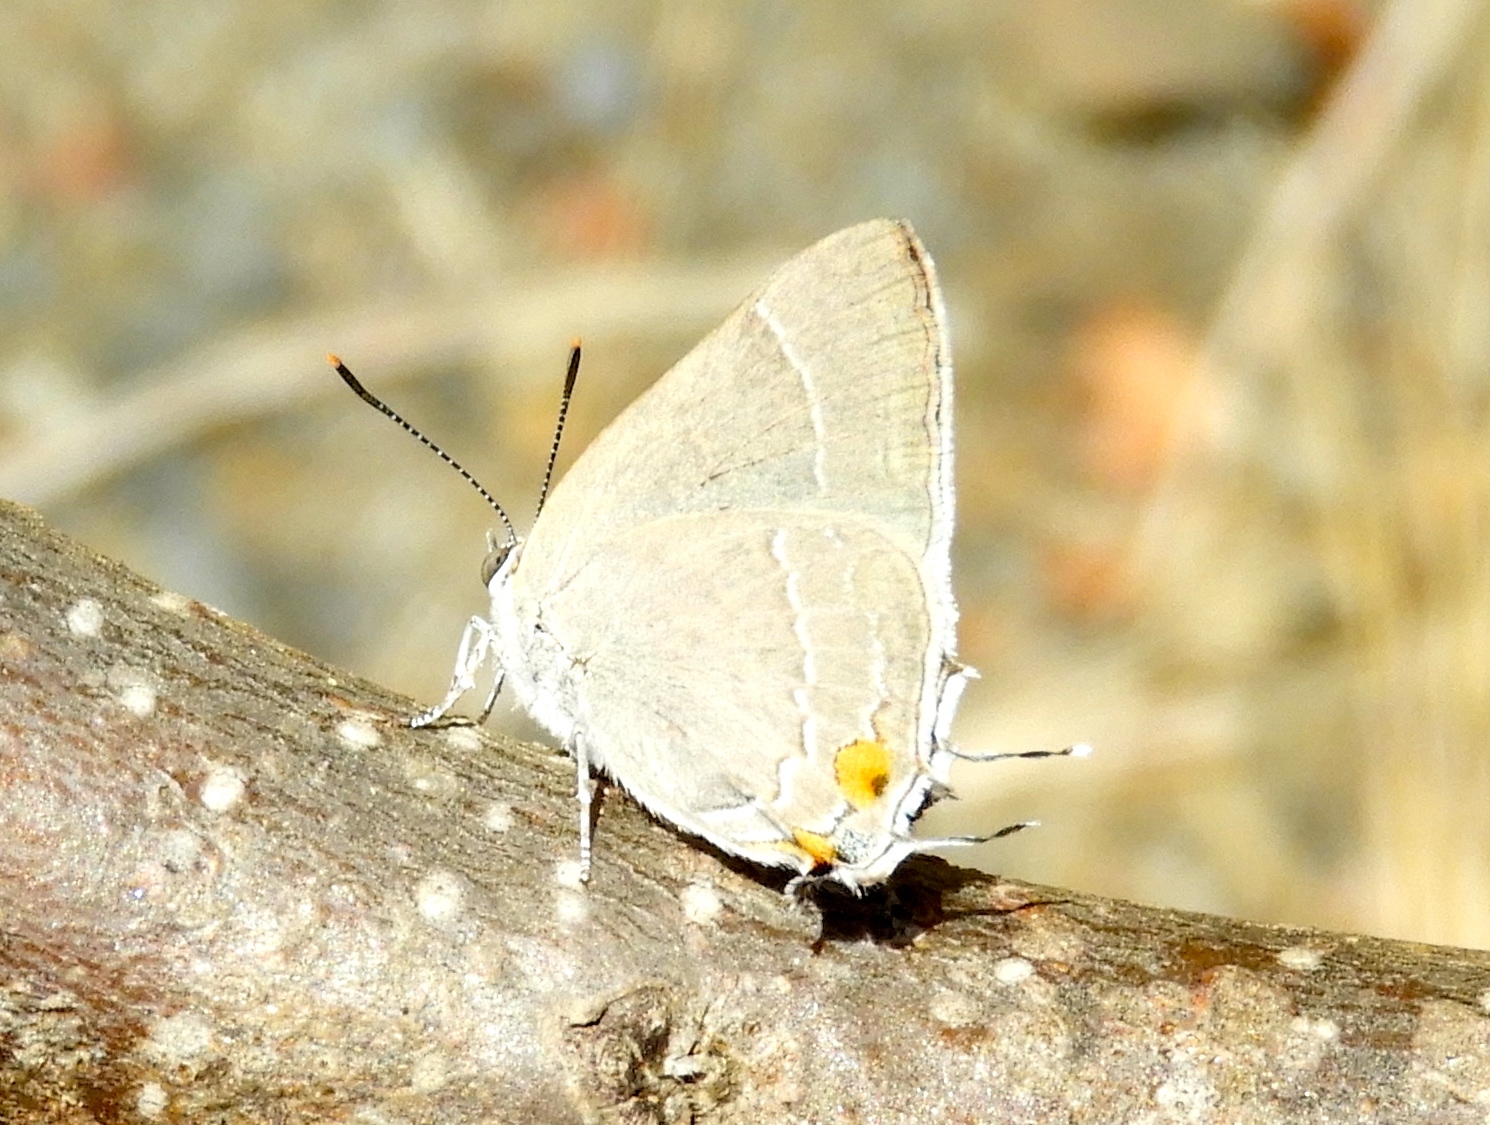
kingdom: Animalia
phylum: Arthropoda
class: Insecta
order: Lepidoptera
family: Lycaenidae
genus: Rekoa
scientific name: Rekoa
